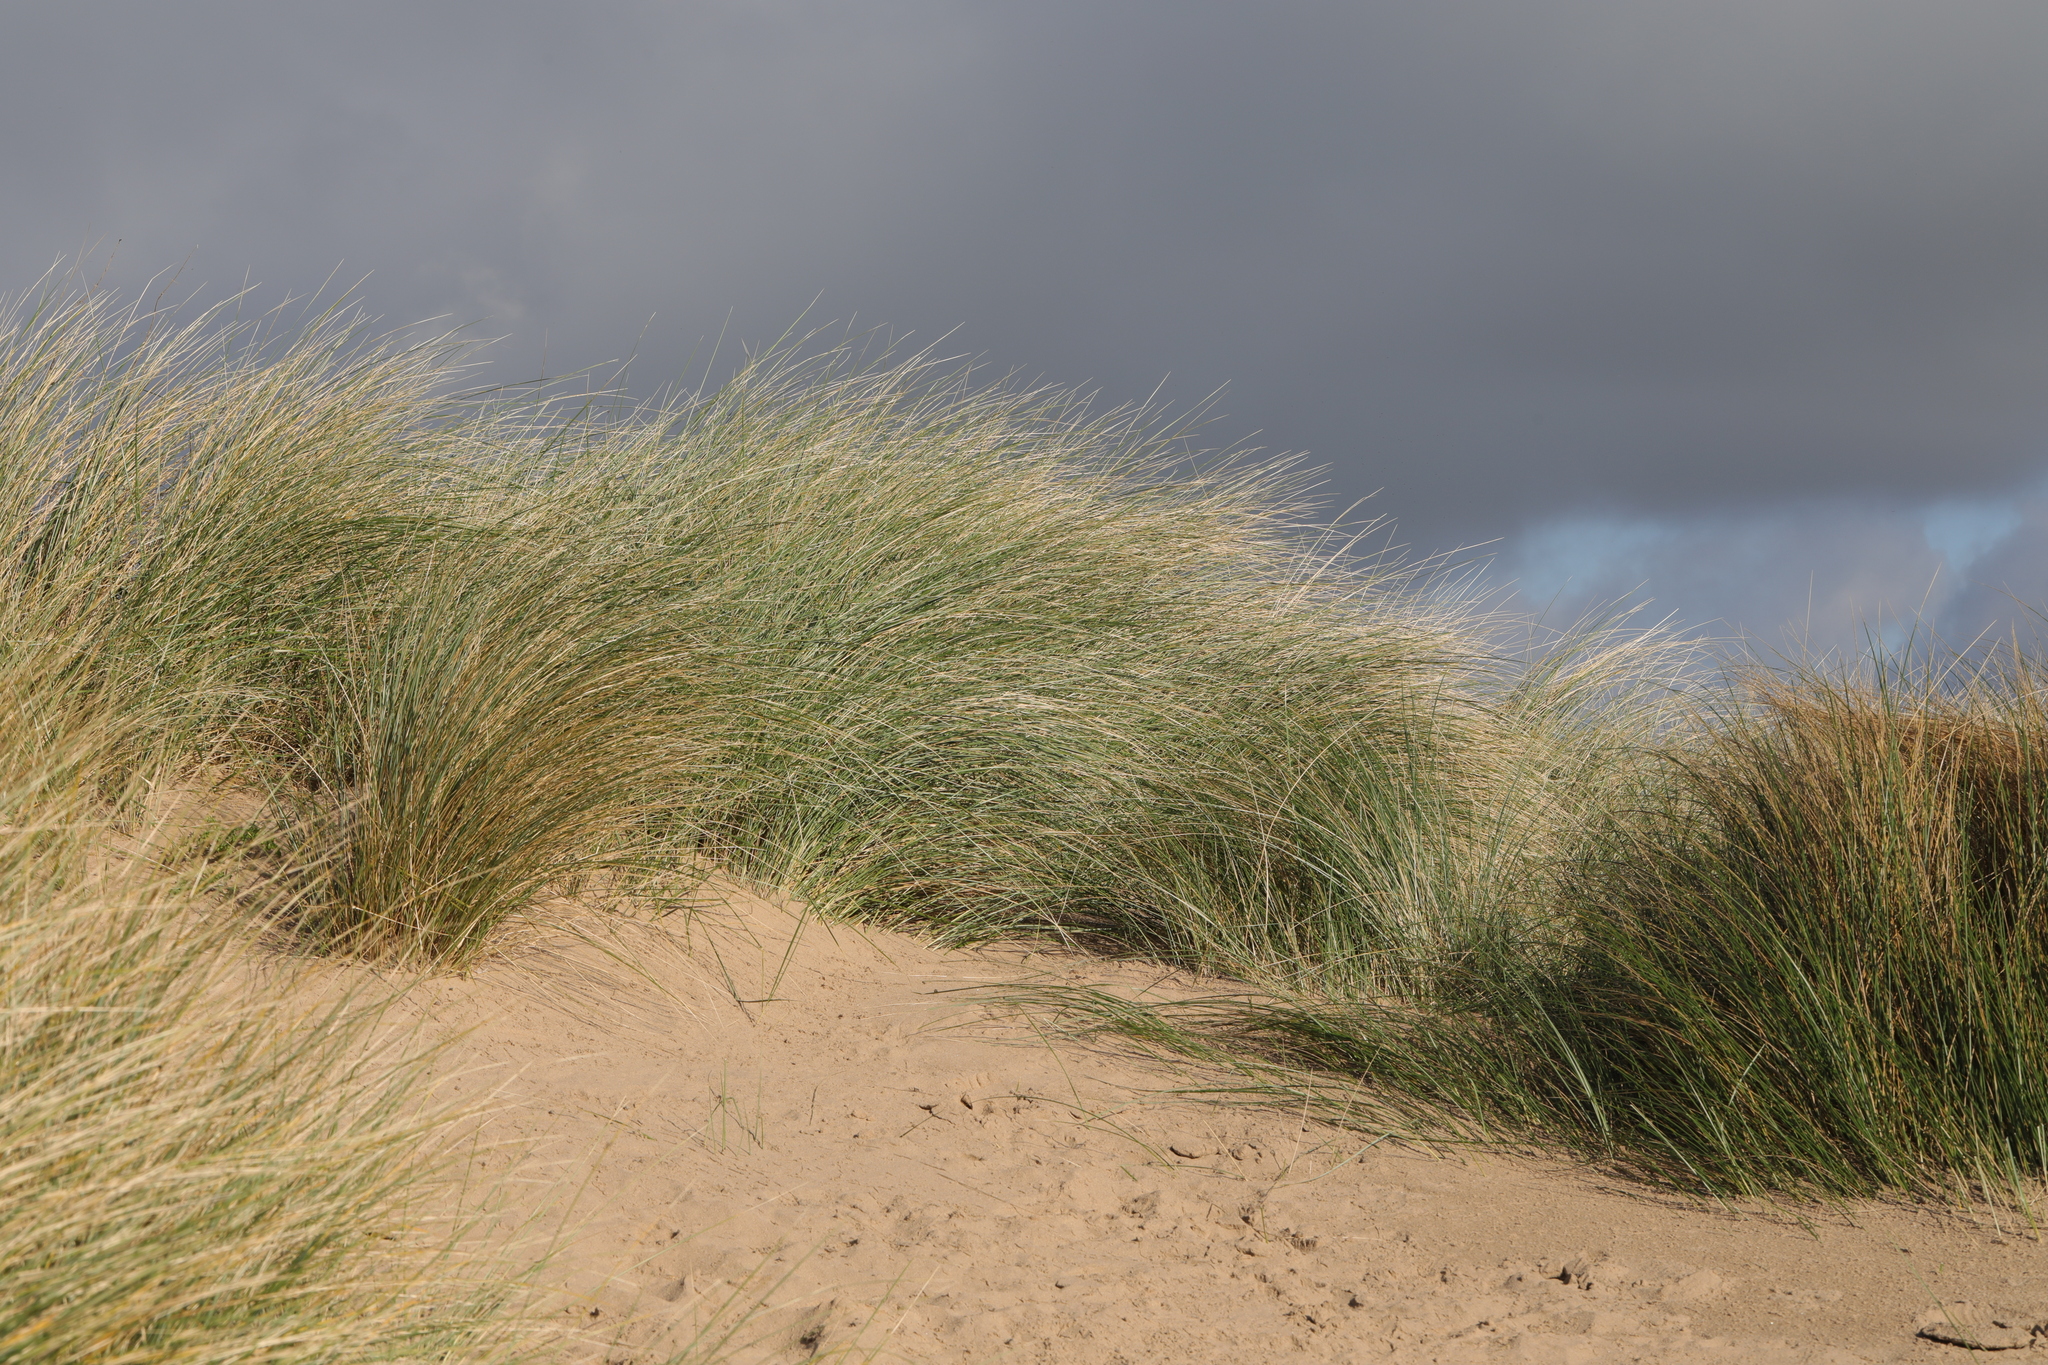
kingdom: Plantae
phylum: Tracheophyta
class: Liliopsida
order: Poales
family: Poaceae
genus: Calamagrostis
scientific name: Calamagrostis arenaria
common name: European beachgrass
